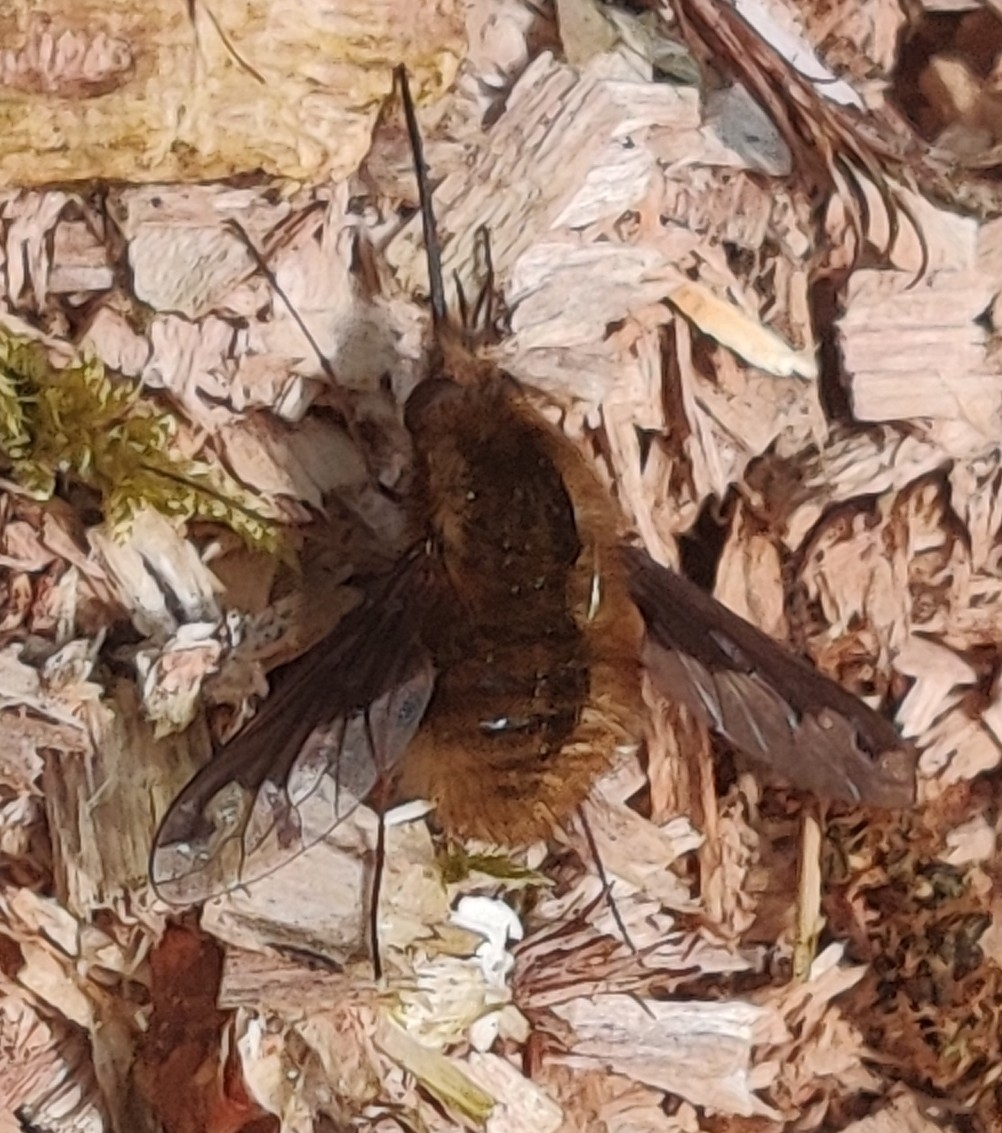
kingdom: Animalia
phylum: Arthropoda
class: Insecta
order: Diptera
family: Bombyliidae
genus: Bombylius
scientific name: Bombylius major
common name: Bee fly
